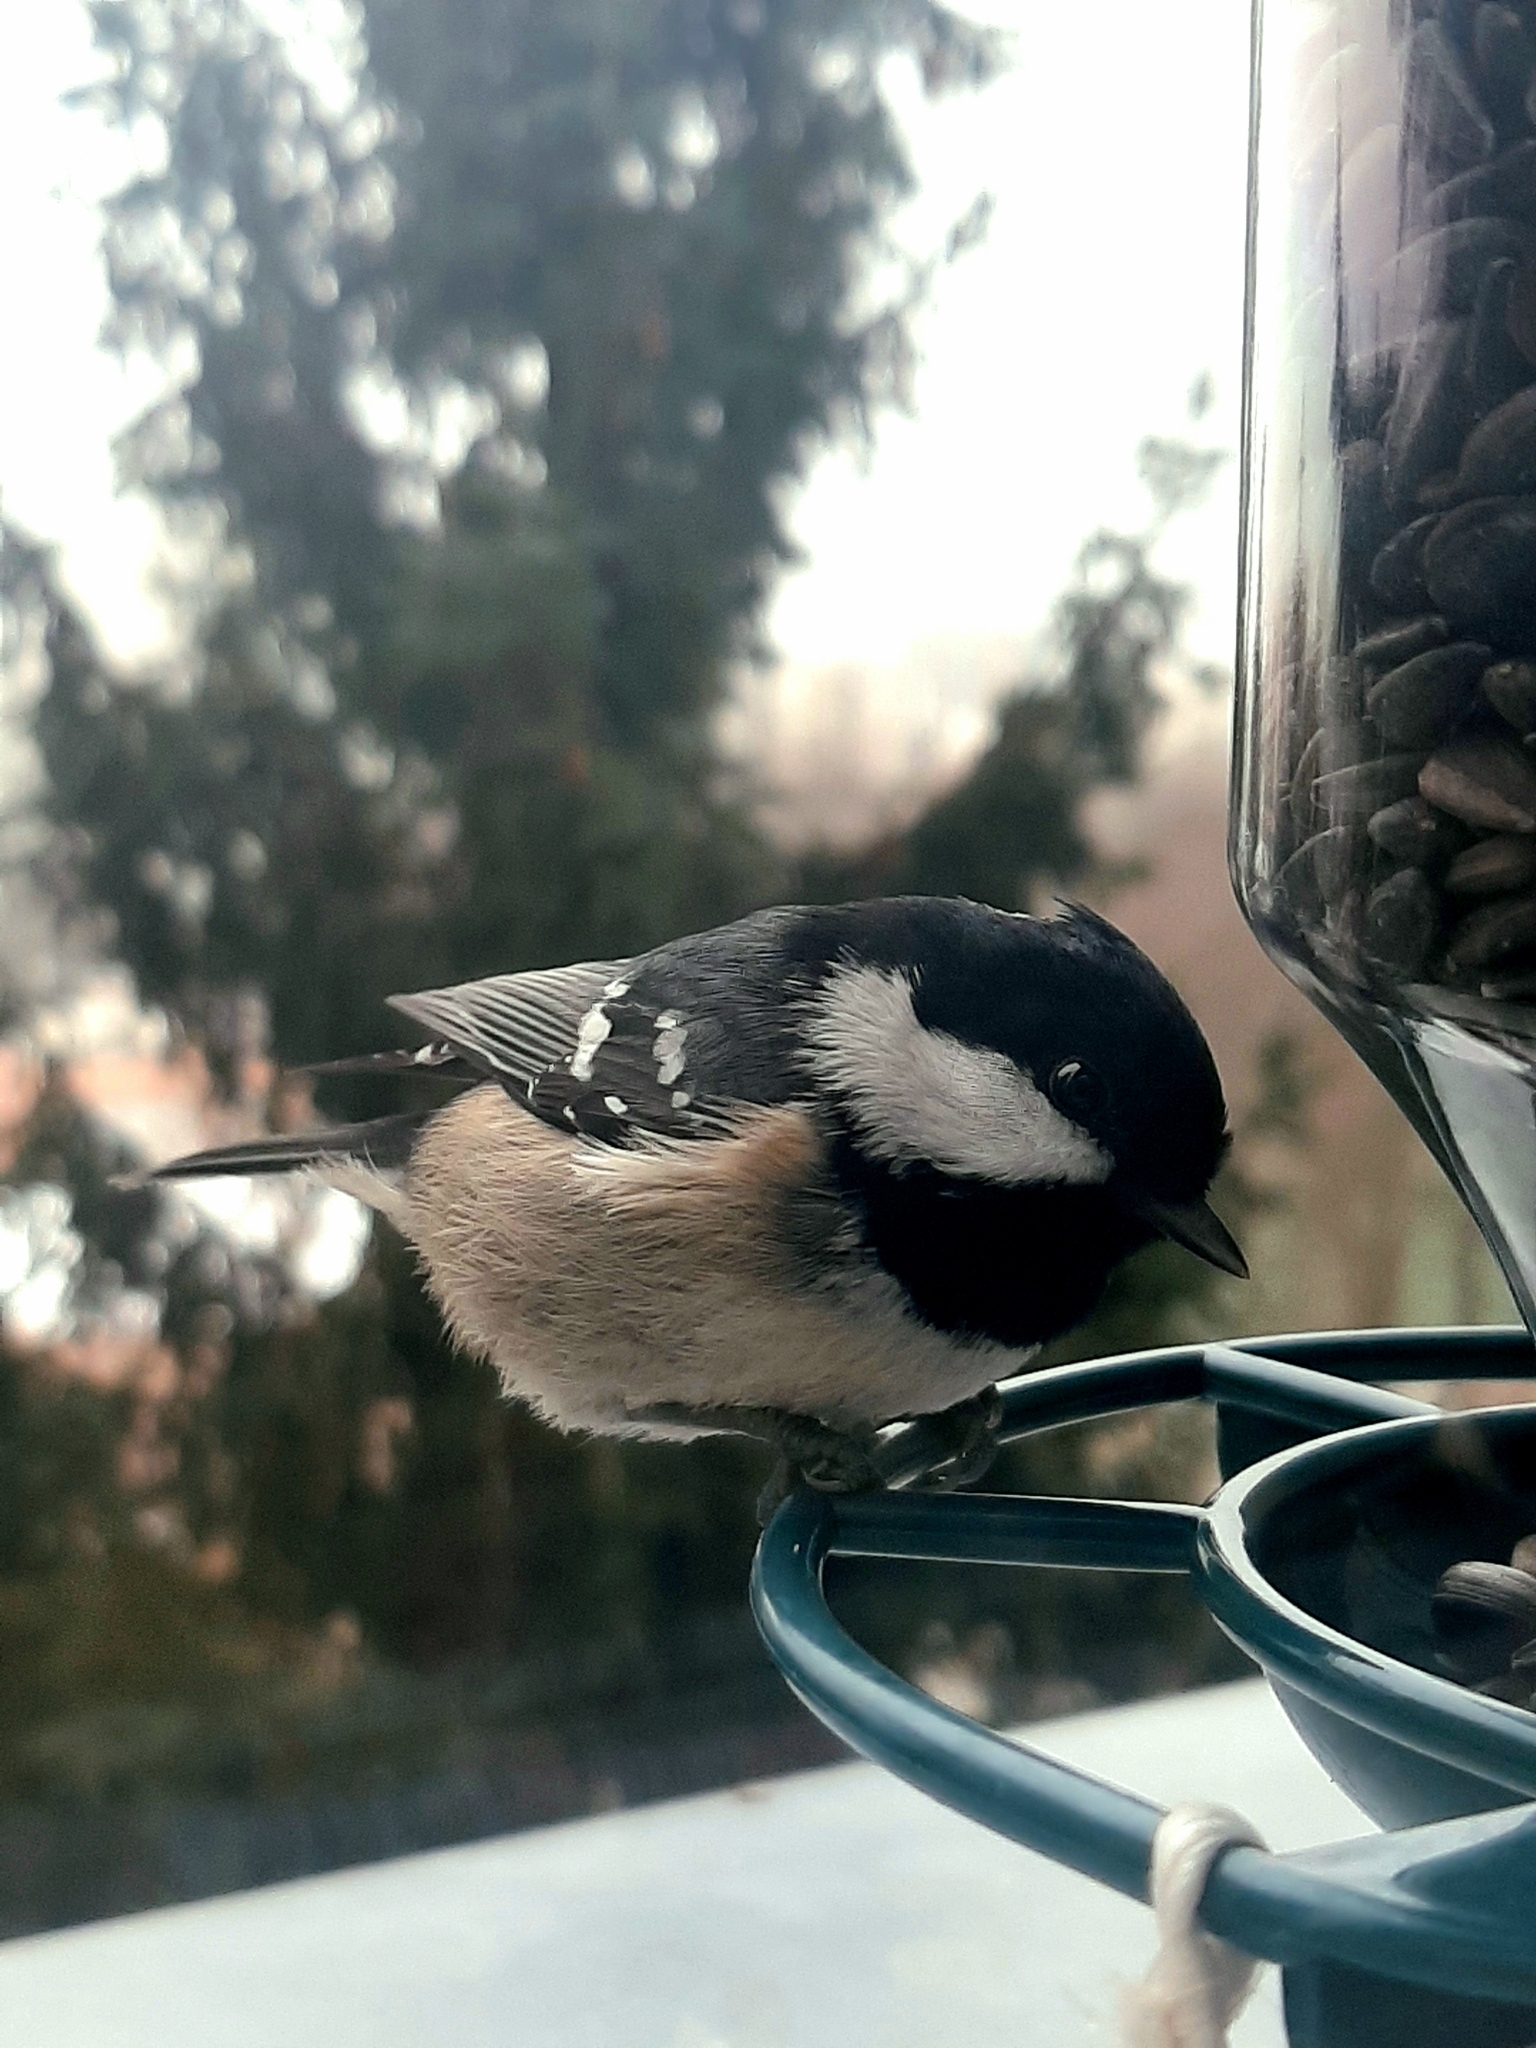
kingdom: Animalia
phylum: Chordata
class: Aves
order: Passeriformes
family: Paridae
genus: Periparus
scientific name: Periparus ater
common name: Coal tit
